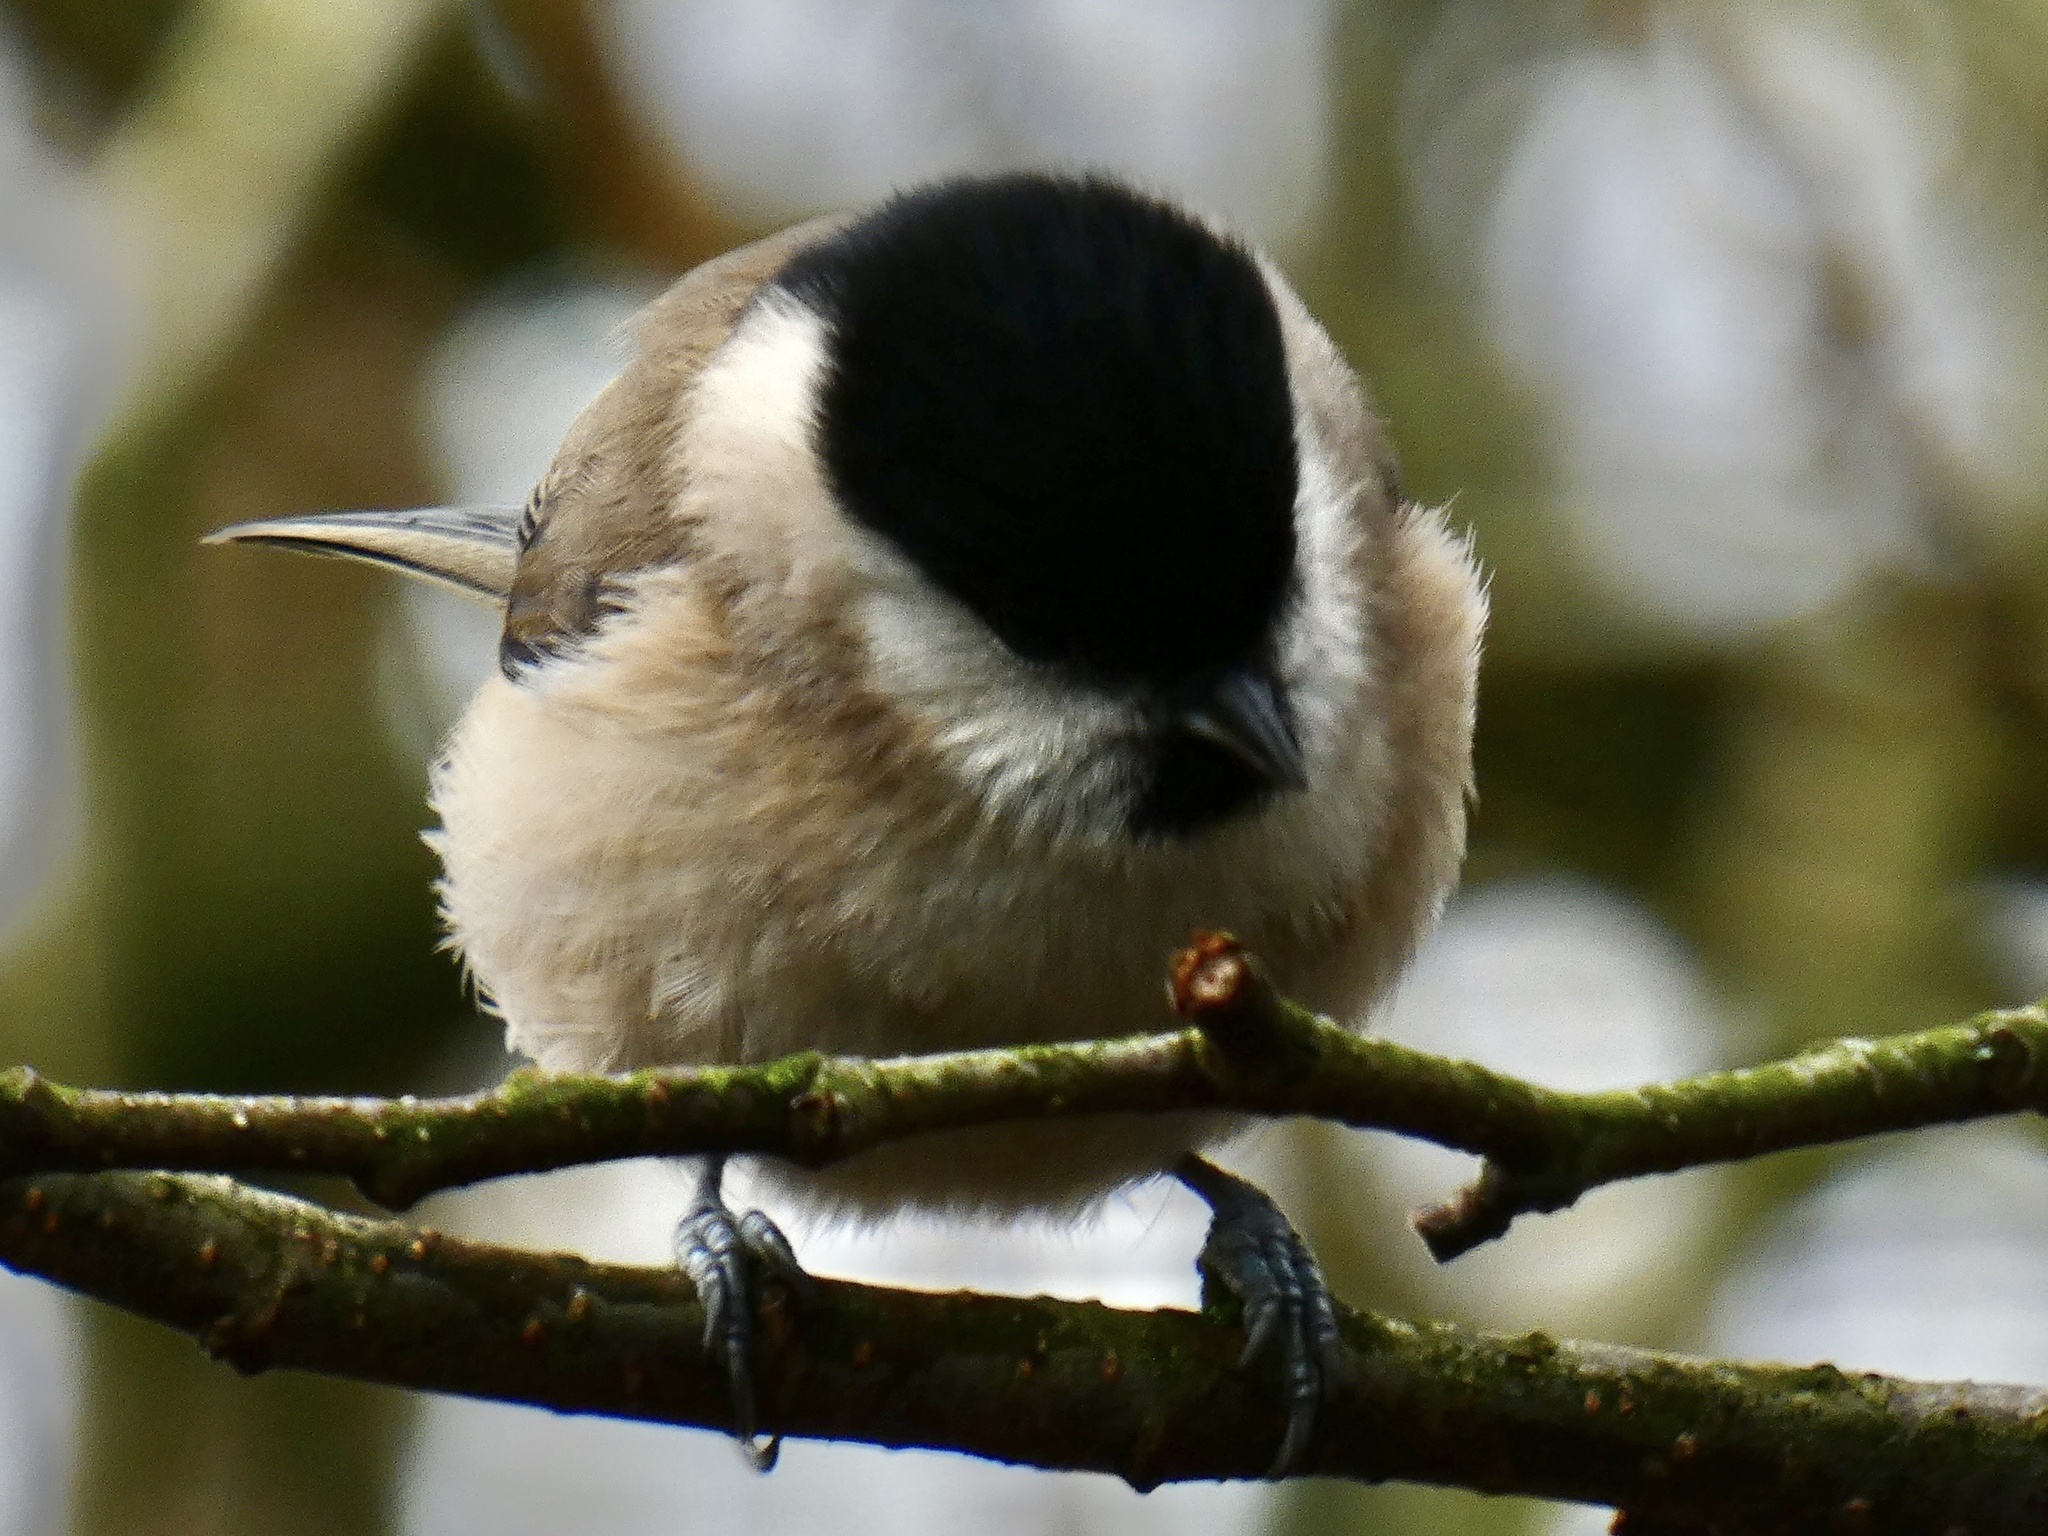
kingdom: Animalia
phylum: Chordata
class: Aves
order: Passeriformes
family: Paridae
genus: Poecile
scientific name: Poecile palustris
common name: Marsh tit
